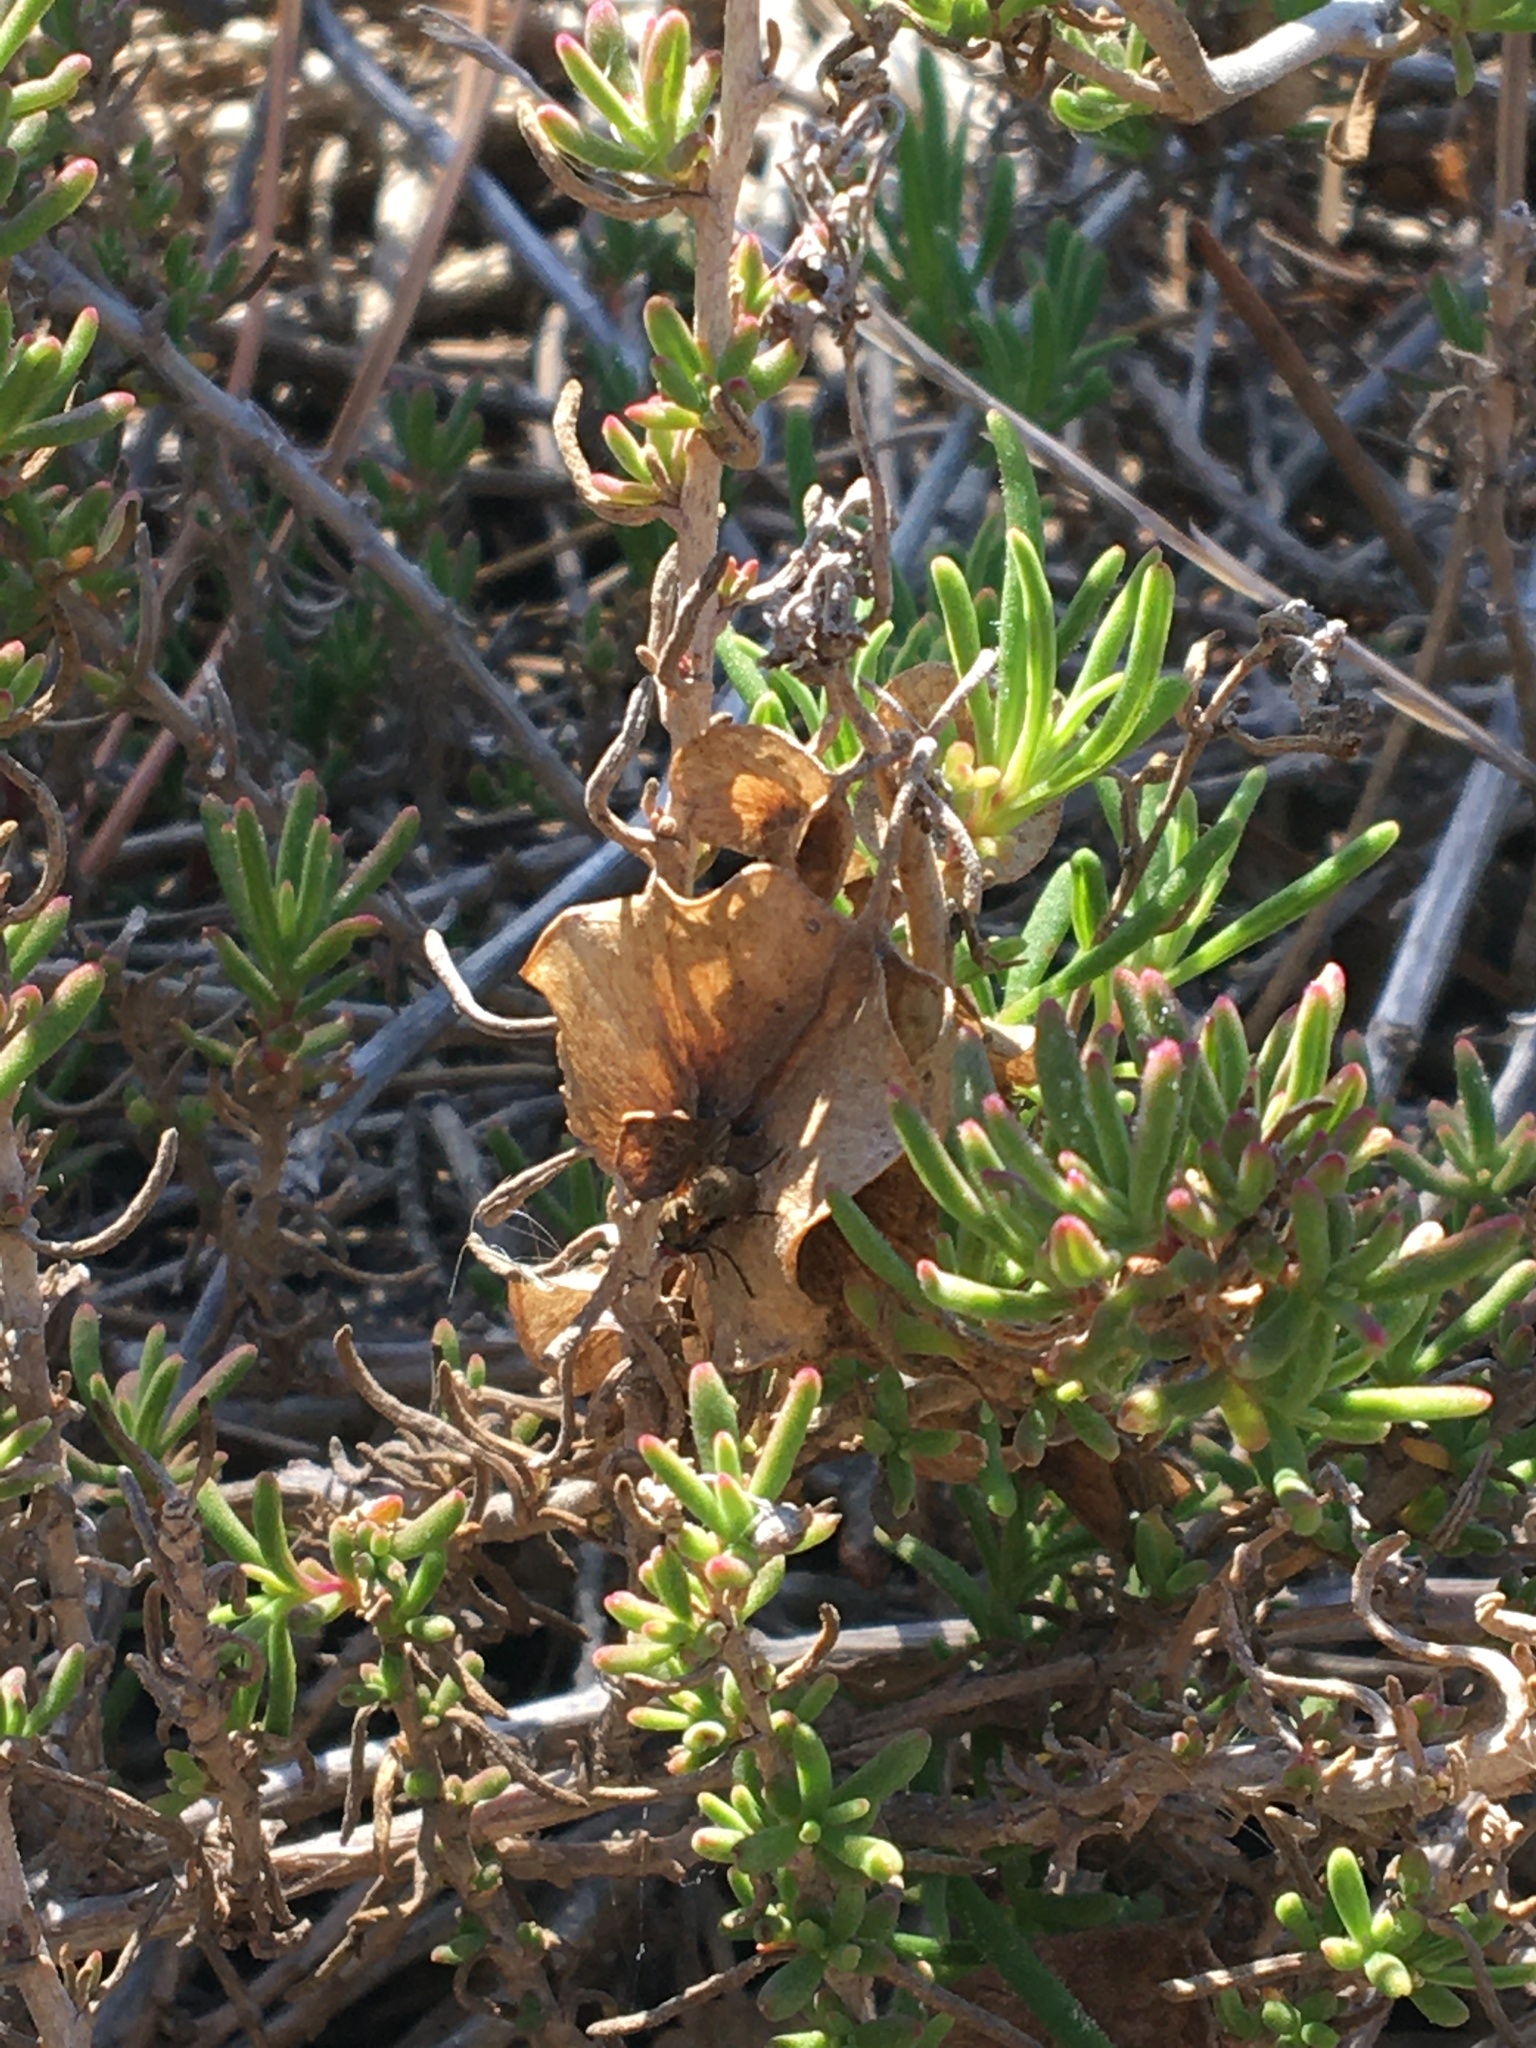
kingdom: Plantae
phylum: Tracheophyta
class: Magnoliopsida
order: Caryophyllales
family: Aizoaceae
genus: Tetragonia
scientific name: Tetragonia fruticosa
